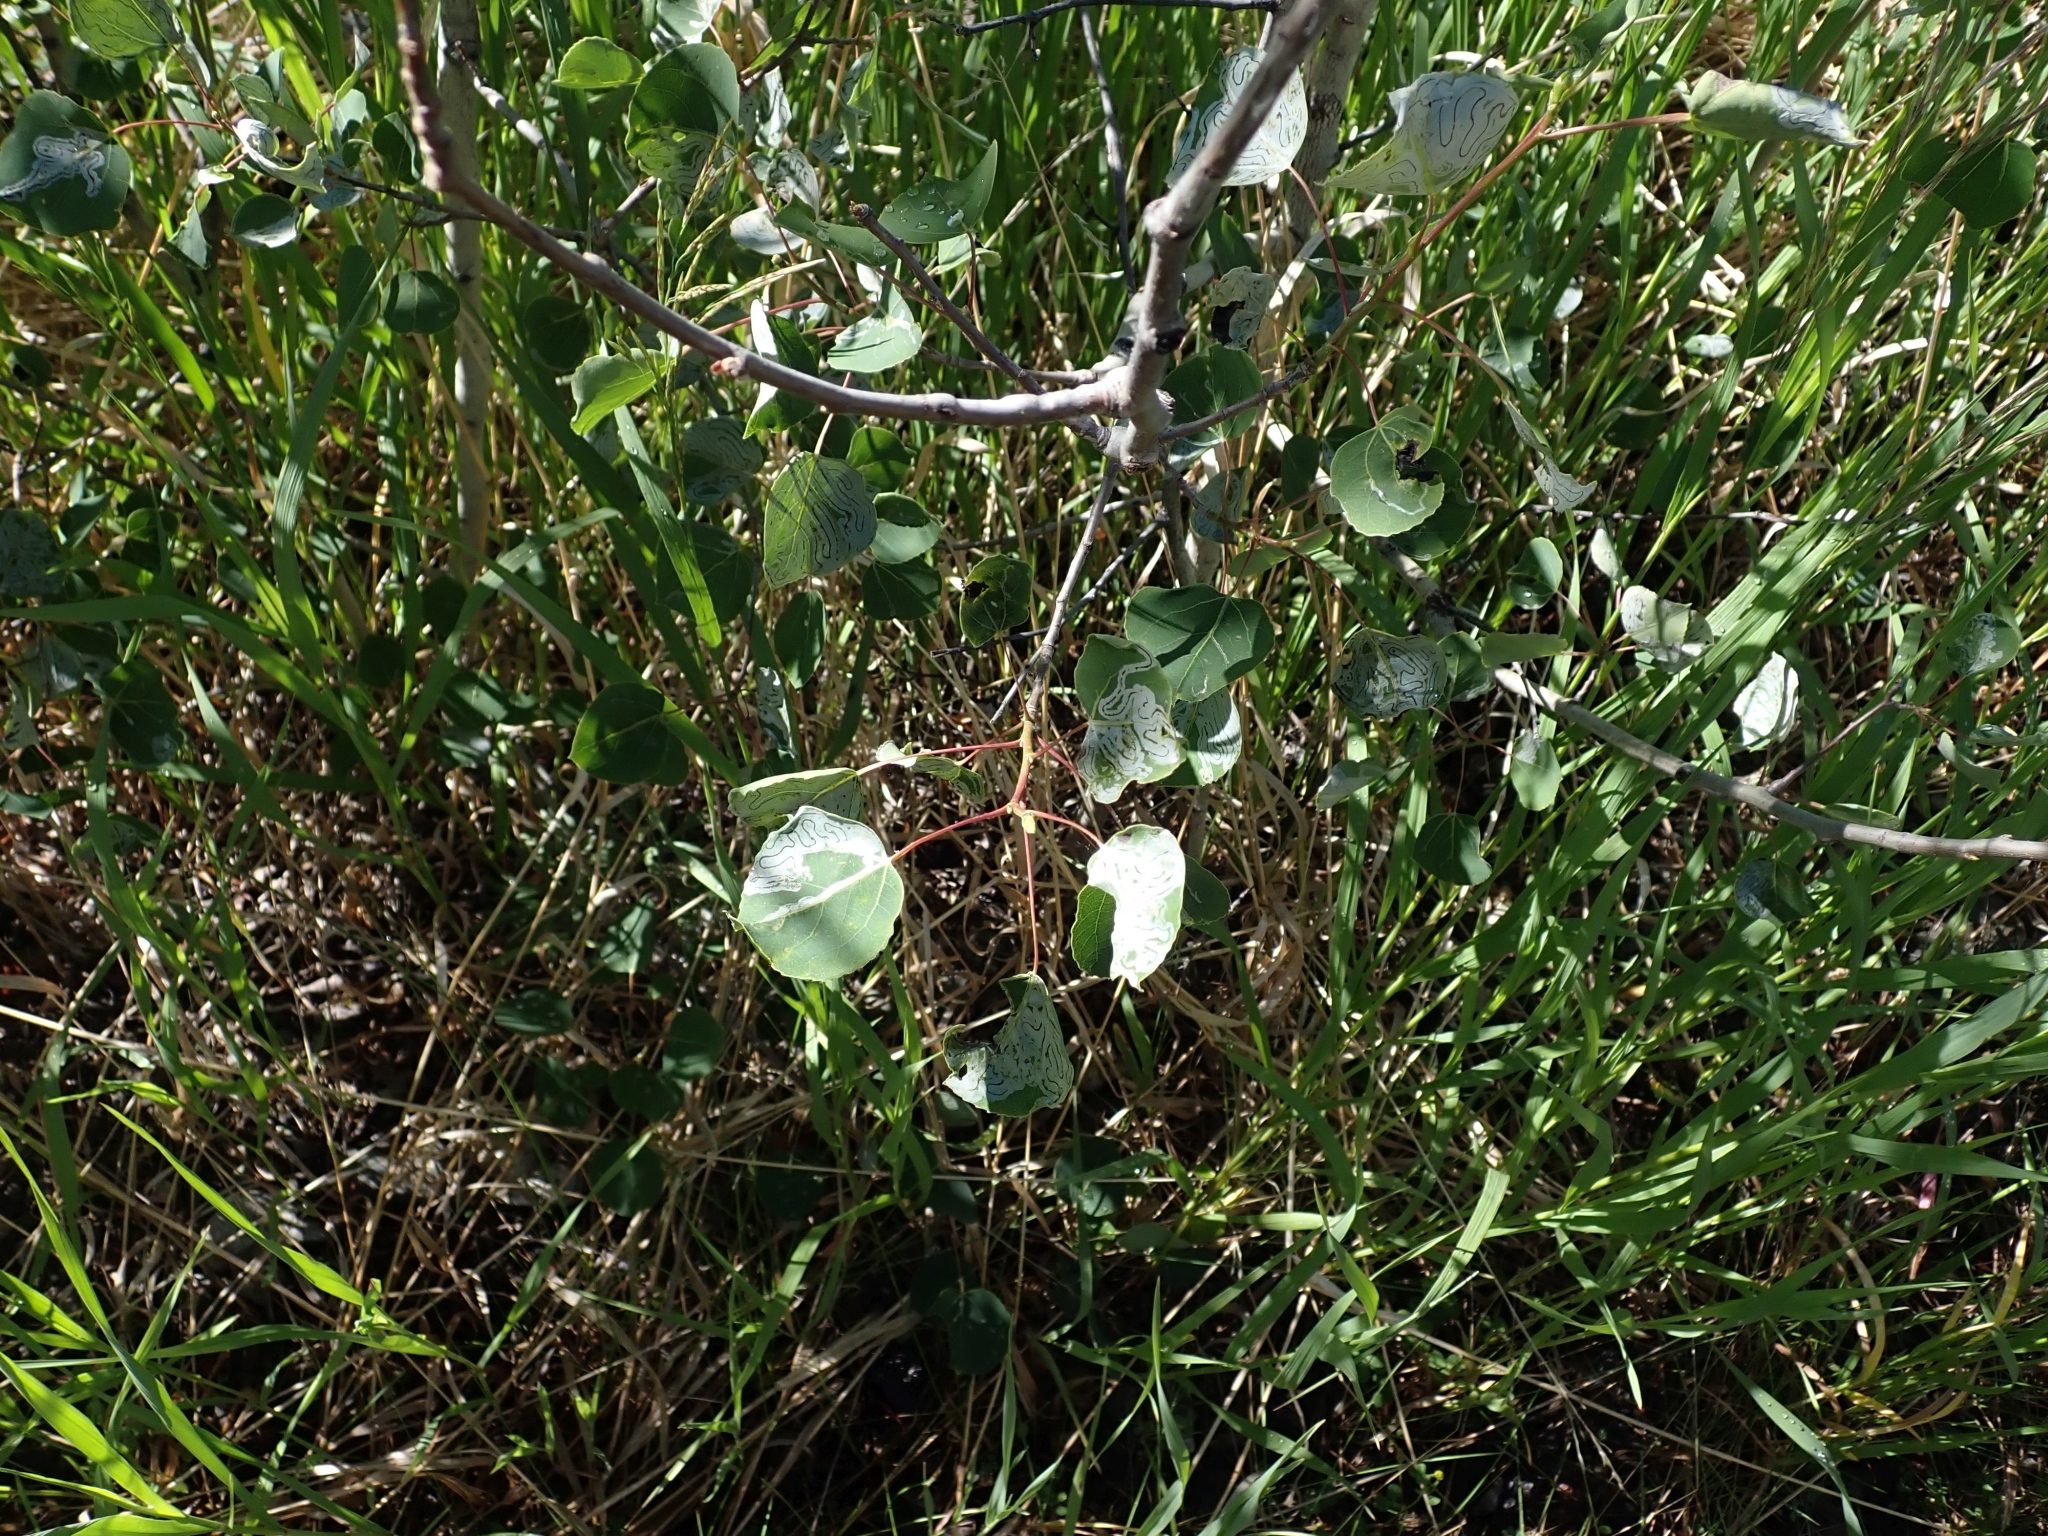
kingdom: Plantae
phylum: Tracheophyta
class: Magnoliopsida
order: Malpighiales
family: Salicaceae
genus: Populus
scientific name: Populus tremuloides
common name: Quaking aspen
